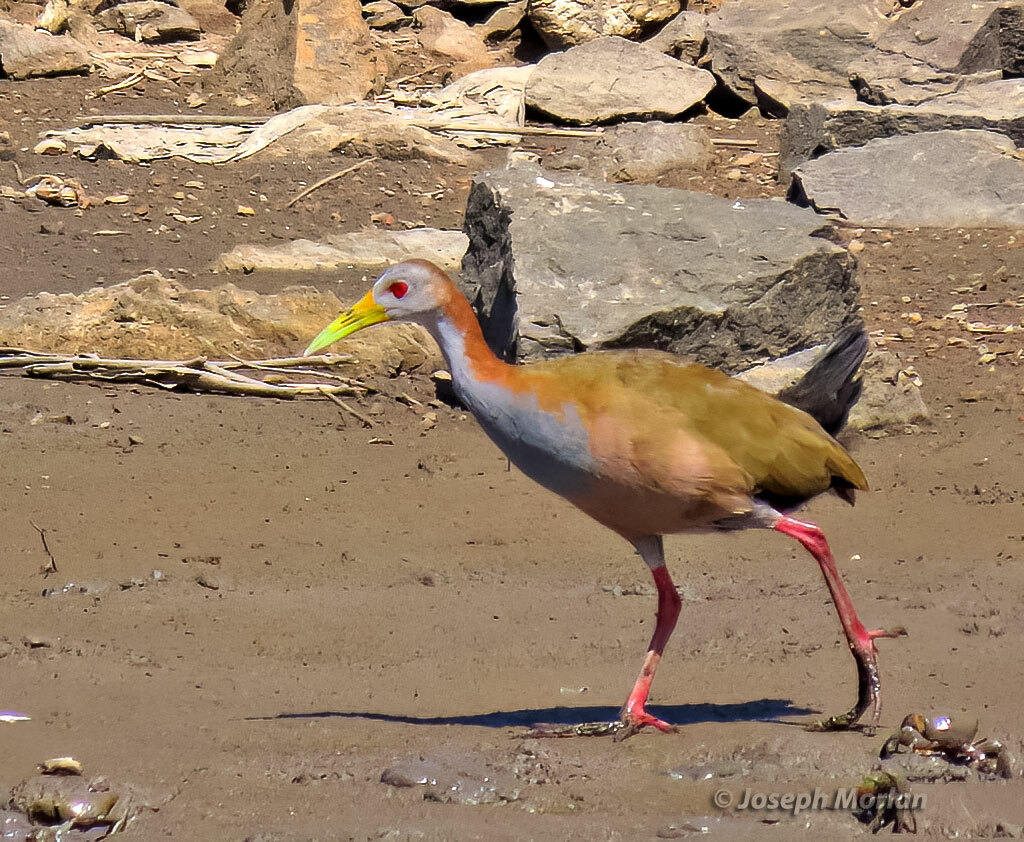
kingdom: Animalia
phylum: Chordata
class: Aves
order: Gruiformes
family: Rallidae
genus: Aramides
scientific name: Aramides ypecaha
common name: Giant wood rail
